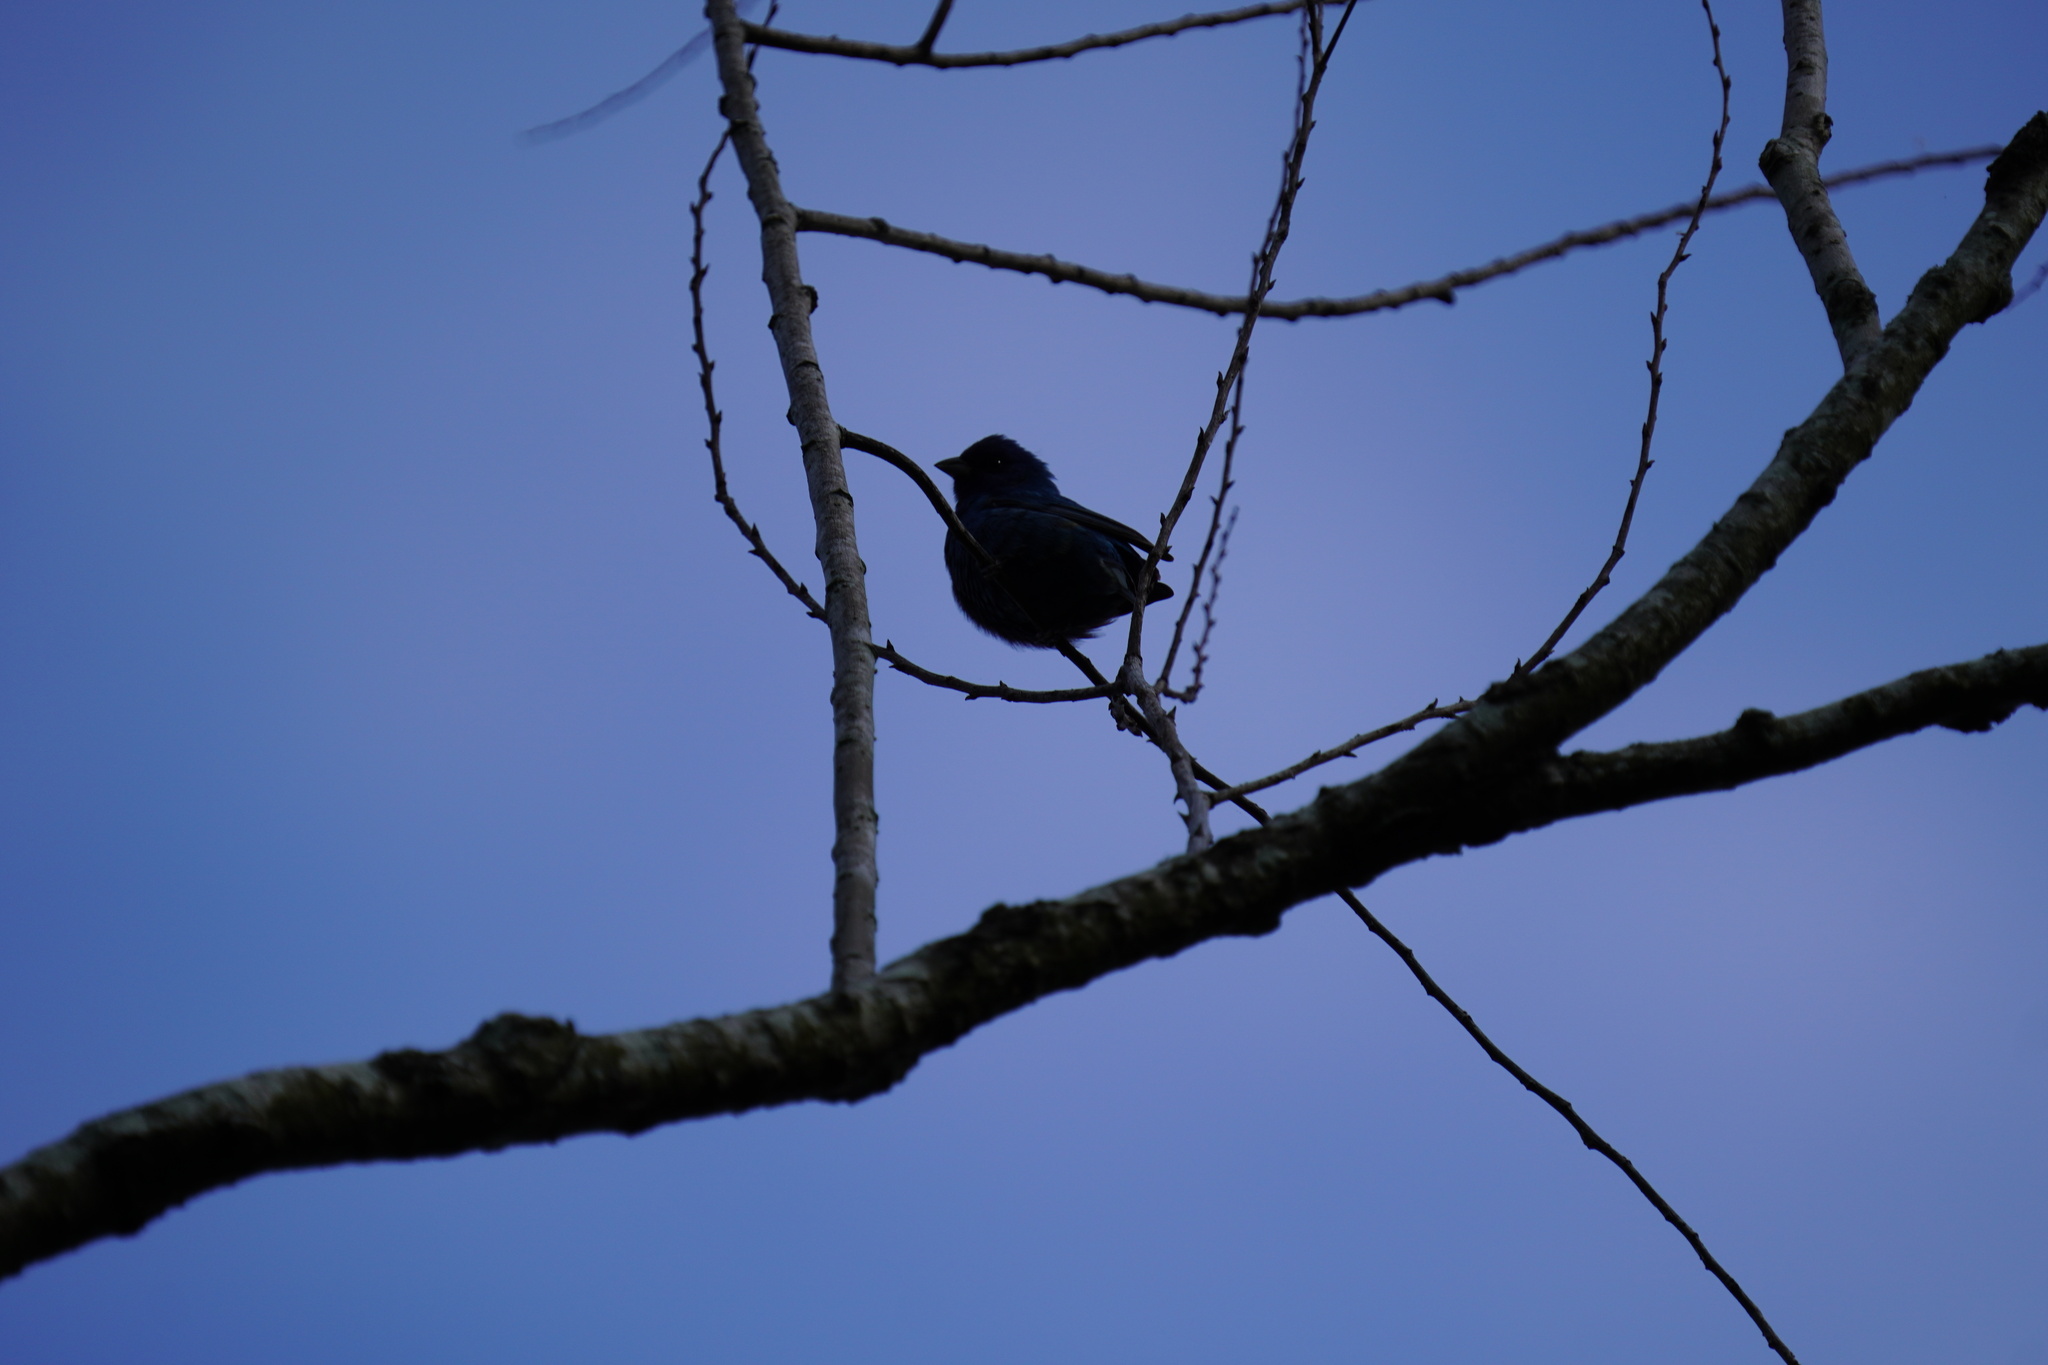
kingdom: Animalia
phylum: Chordata
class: Aves
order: Passeriformes
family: Cardinalidae
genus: Passerina
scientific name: Passerina cyanea
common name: Indigo bunting
